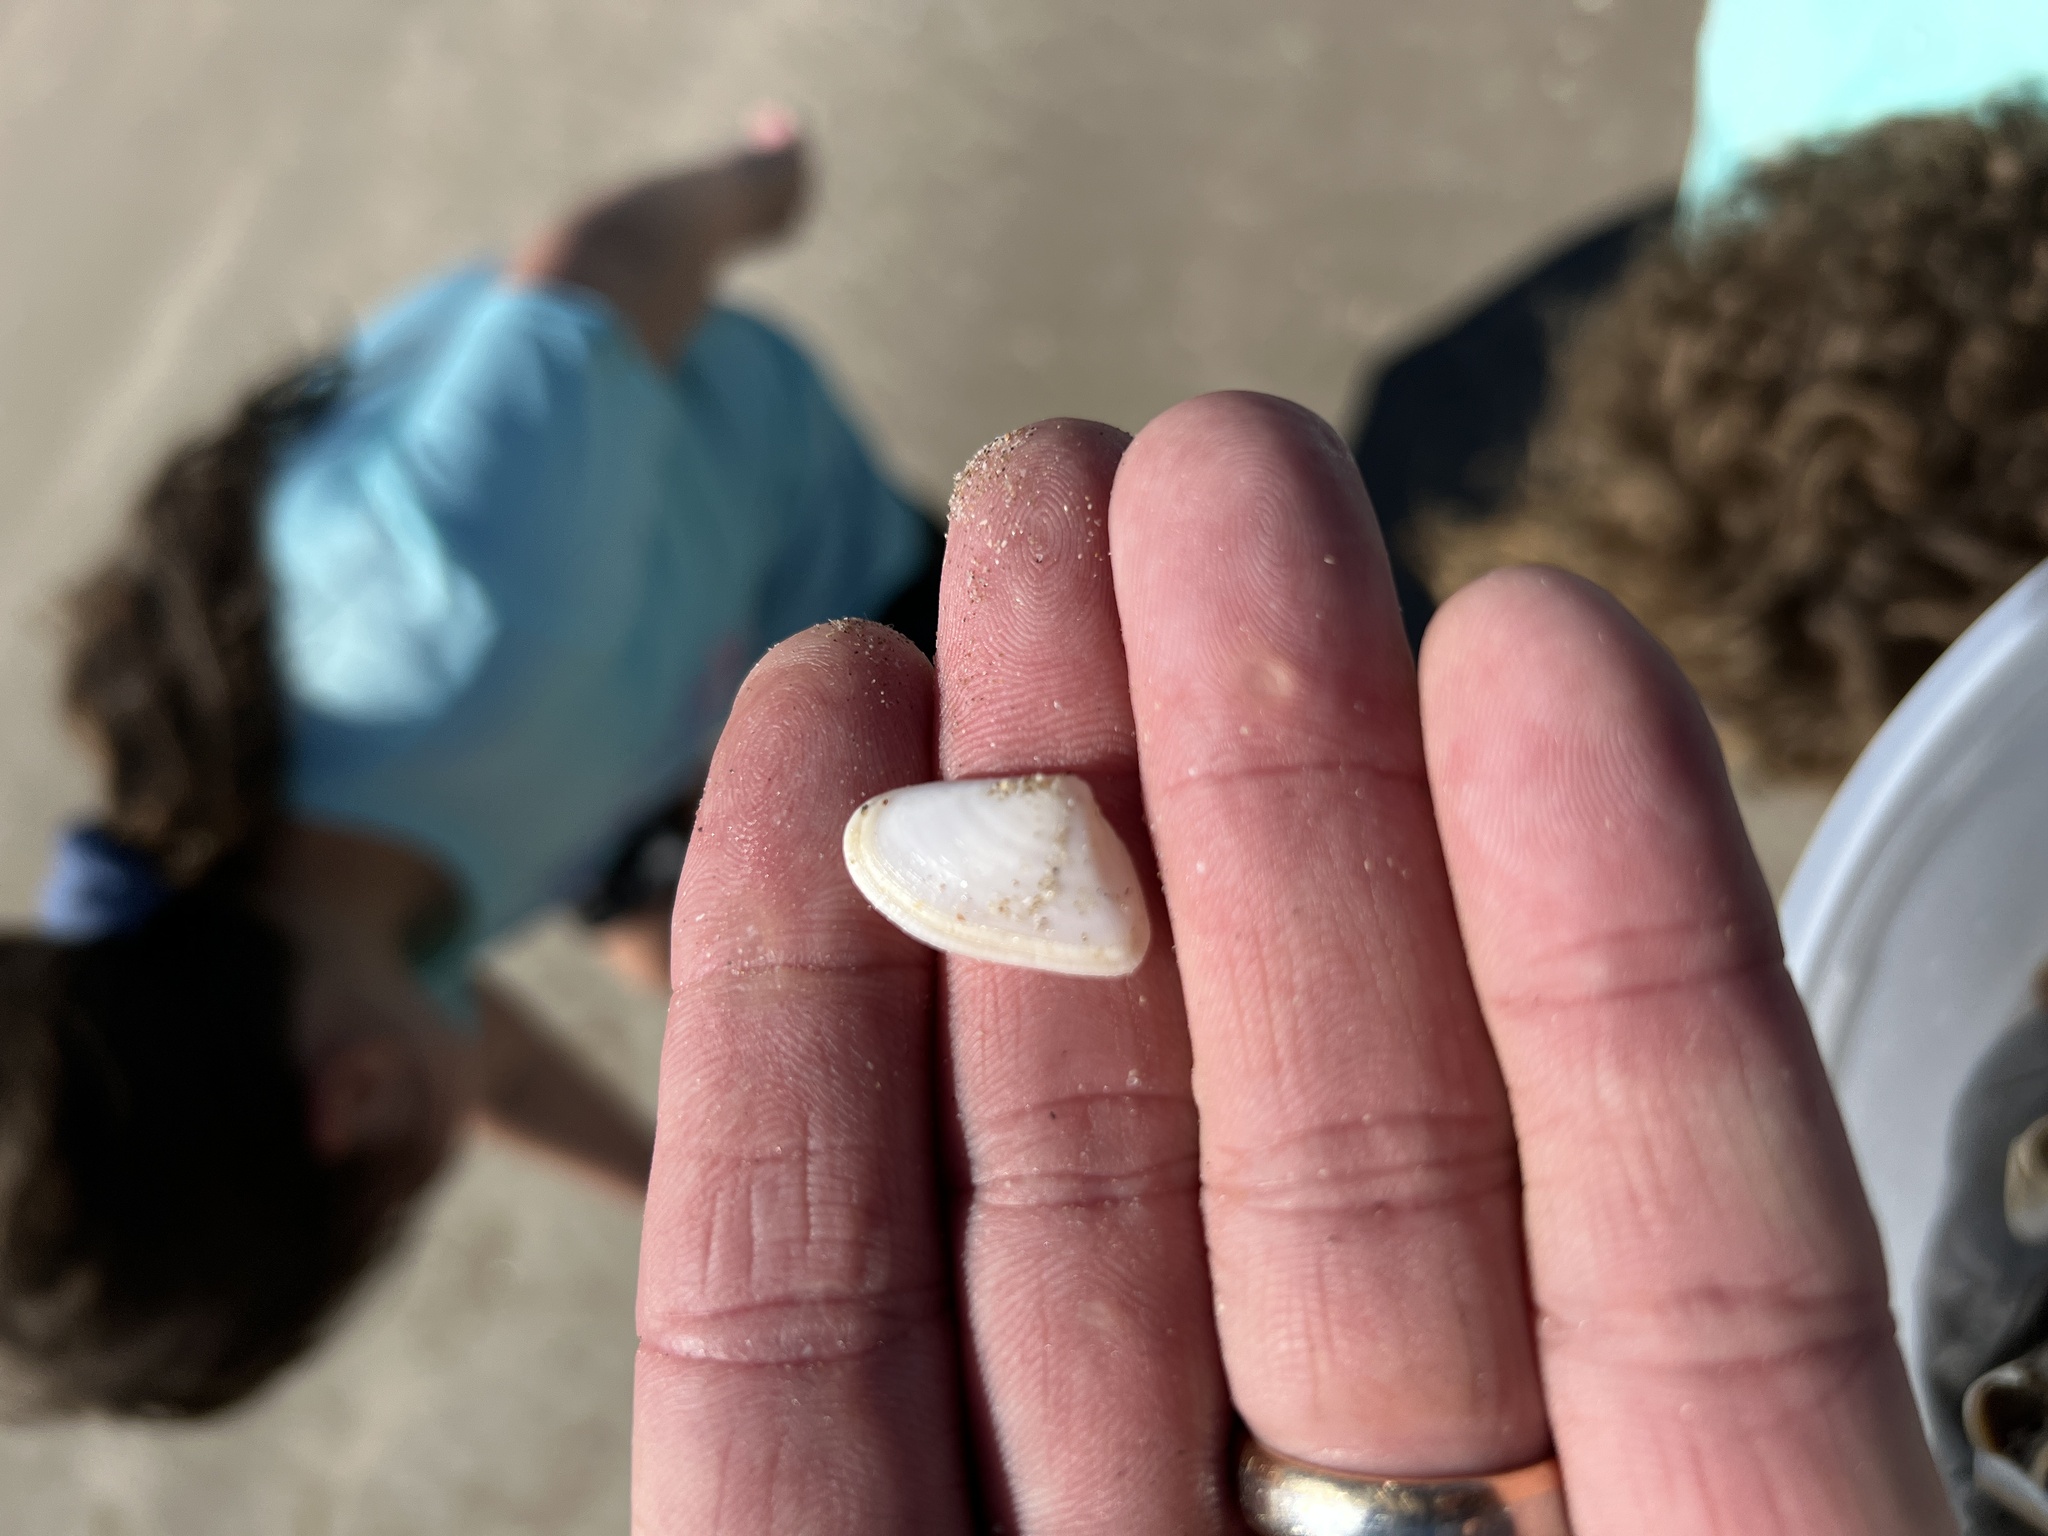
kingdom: Animalia
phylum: Mollusca
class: Bivalvia
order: Cardiida
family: Donacidae
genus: Donax
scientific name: Donax variabilis
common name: Butterfly shell
